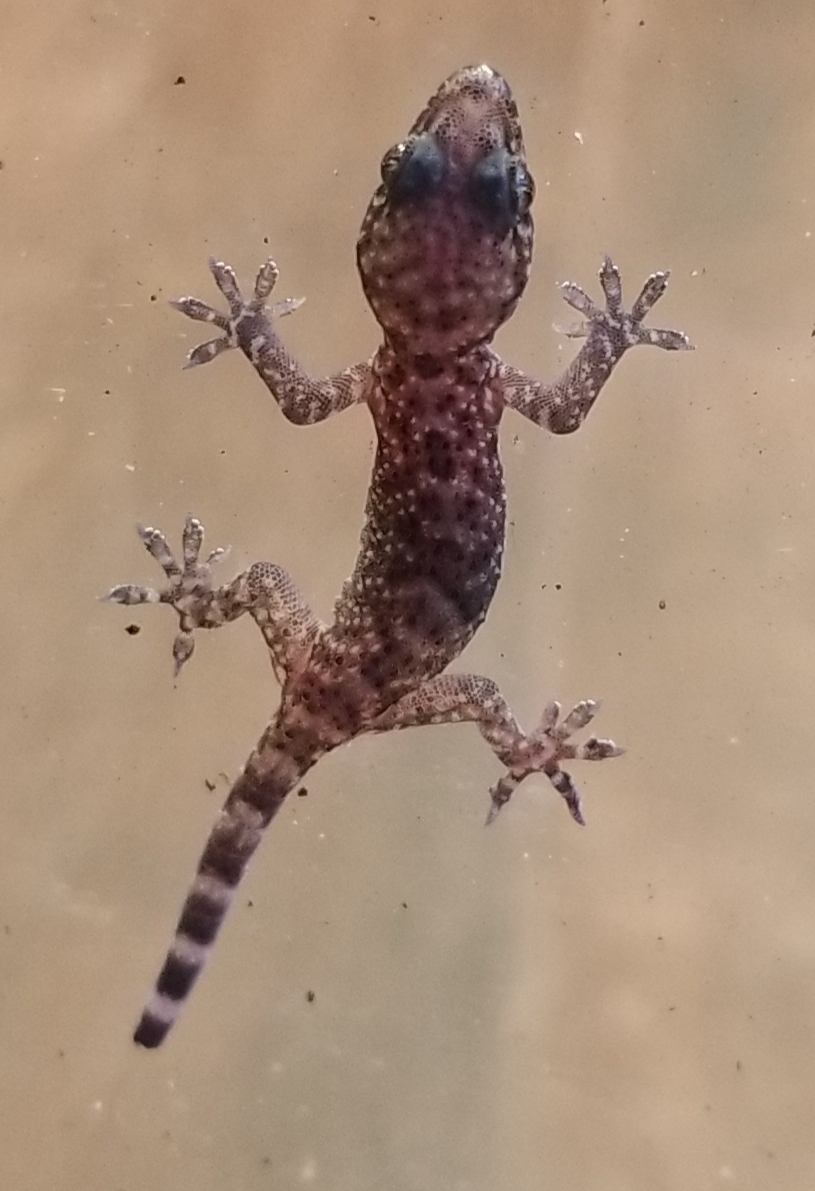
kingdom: Animalia
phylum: Chordata
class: Squamata
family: Gekkonidae
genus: Hemidactylus
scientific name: Hemidactylus turcicus
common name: Turkish gecko
